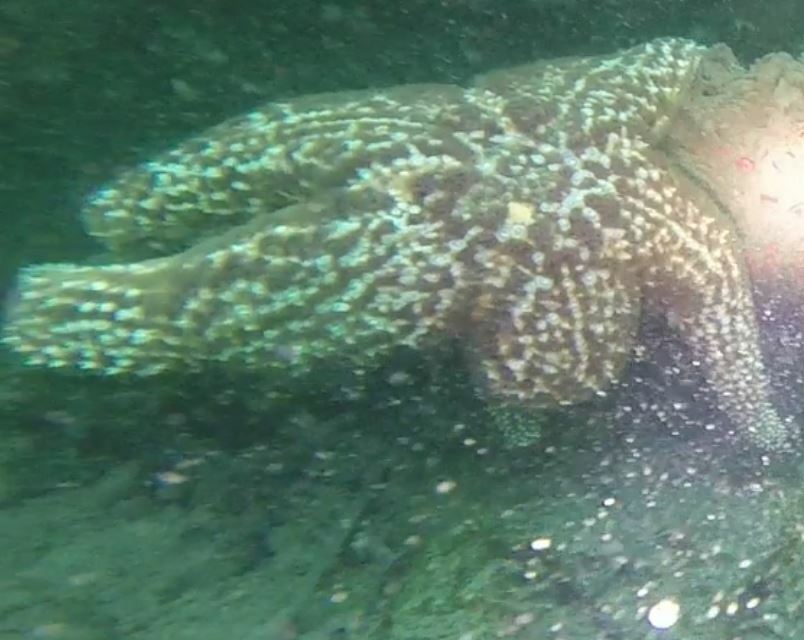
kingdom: Animalia
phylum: Echinodermata
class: Asteroidea
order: Forcipulatida
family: Asteriidae
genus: Pisaster
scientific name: Pisaster giganteus
